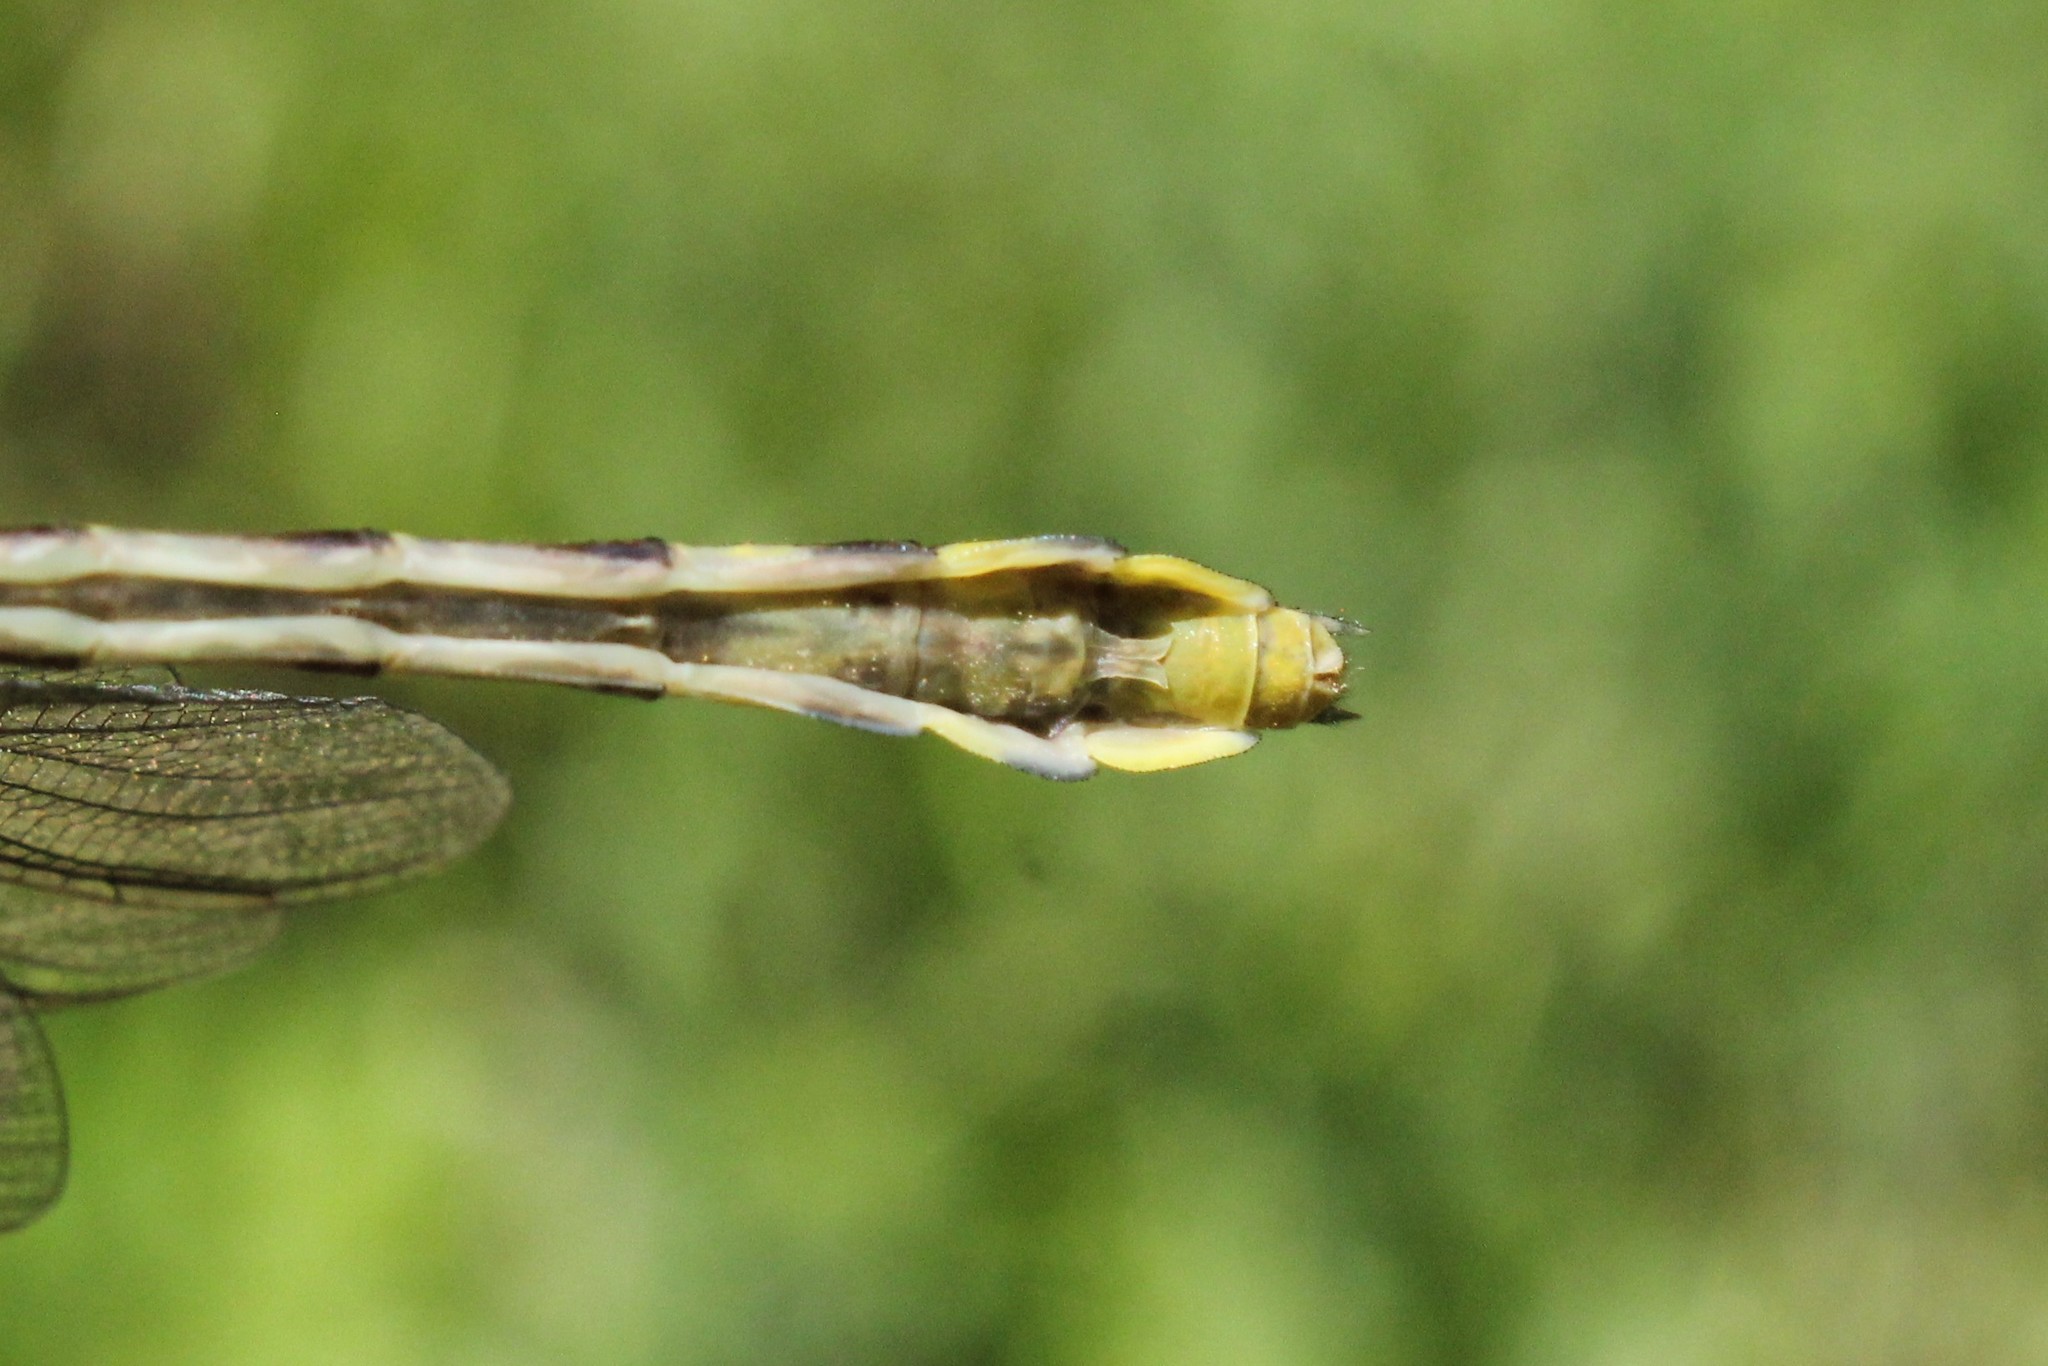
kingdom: Animalia
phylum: Arthropoda
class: Insecta
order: Odonata
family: Gomphidae
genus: Gomphurus
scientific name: Gomphurus fraternus
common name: Midland clubtail
